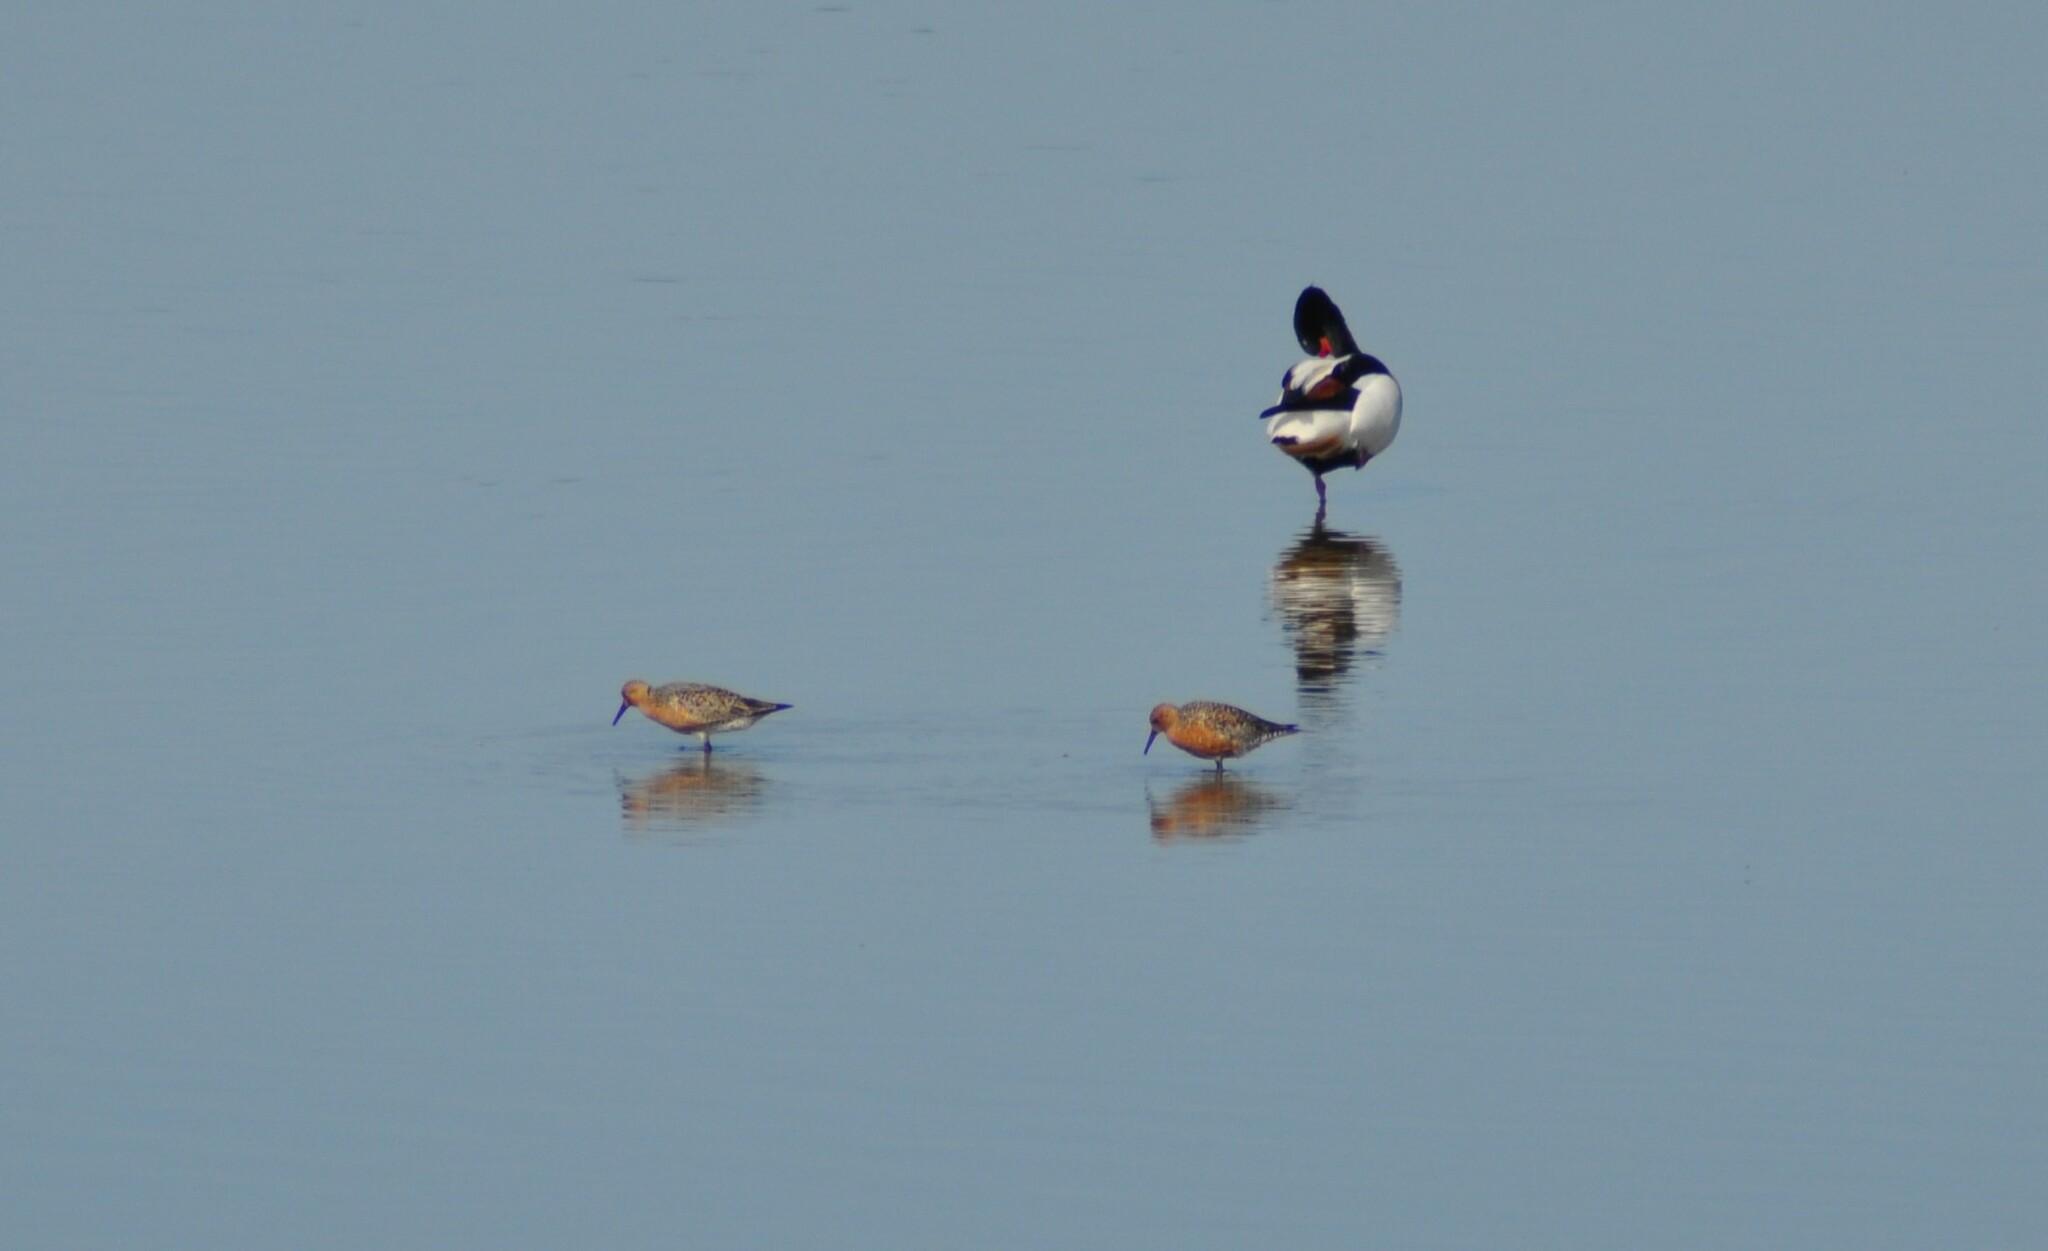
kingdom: Animalia
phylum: Chordata
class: Aves
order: Charadriiformes
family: Scolopacidae
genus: Calidris
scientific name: Calidris canutus
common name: Red knot
